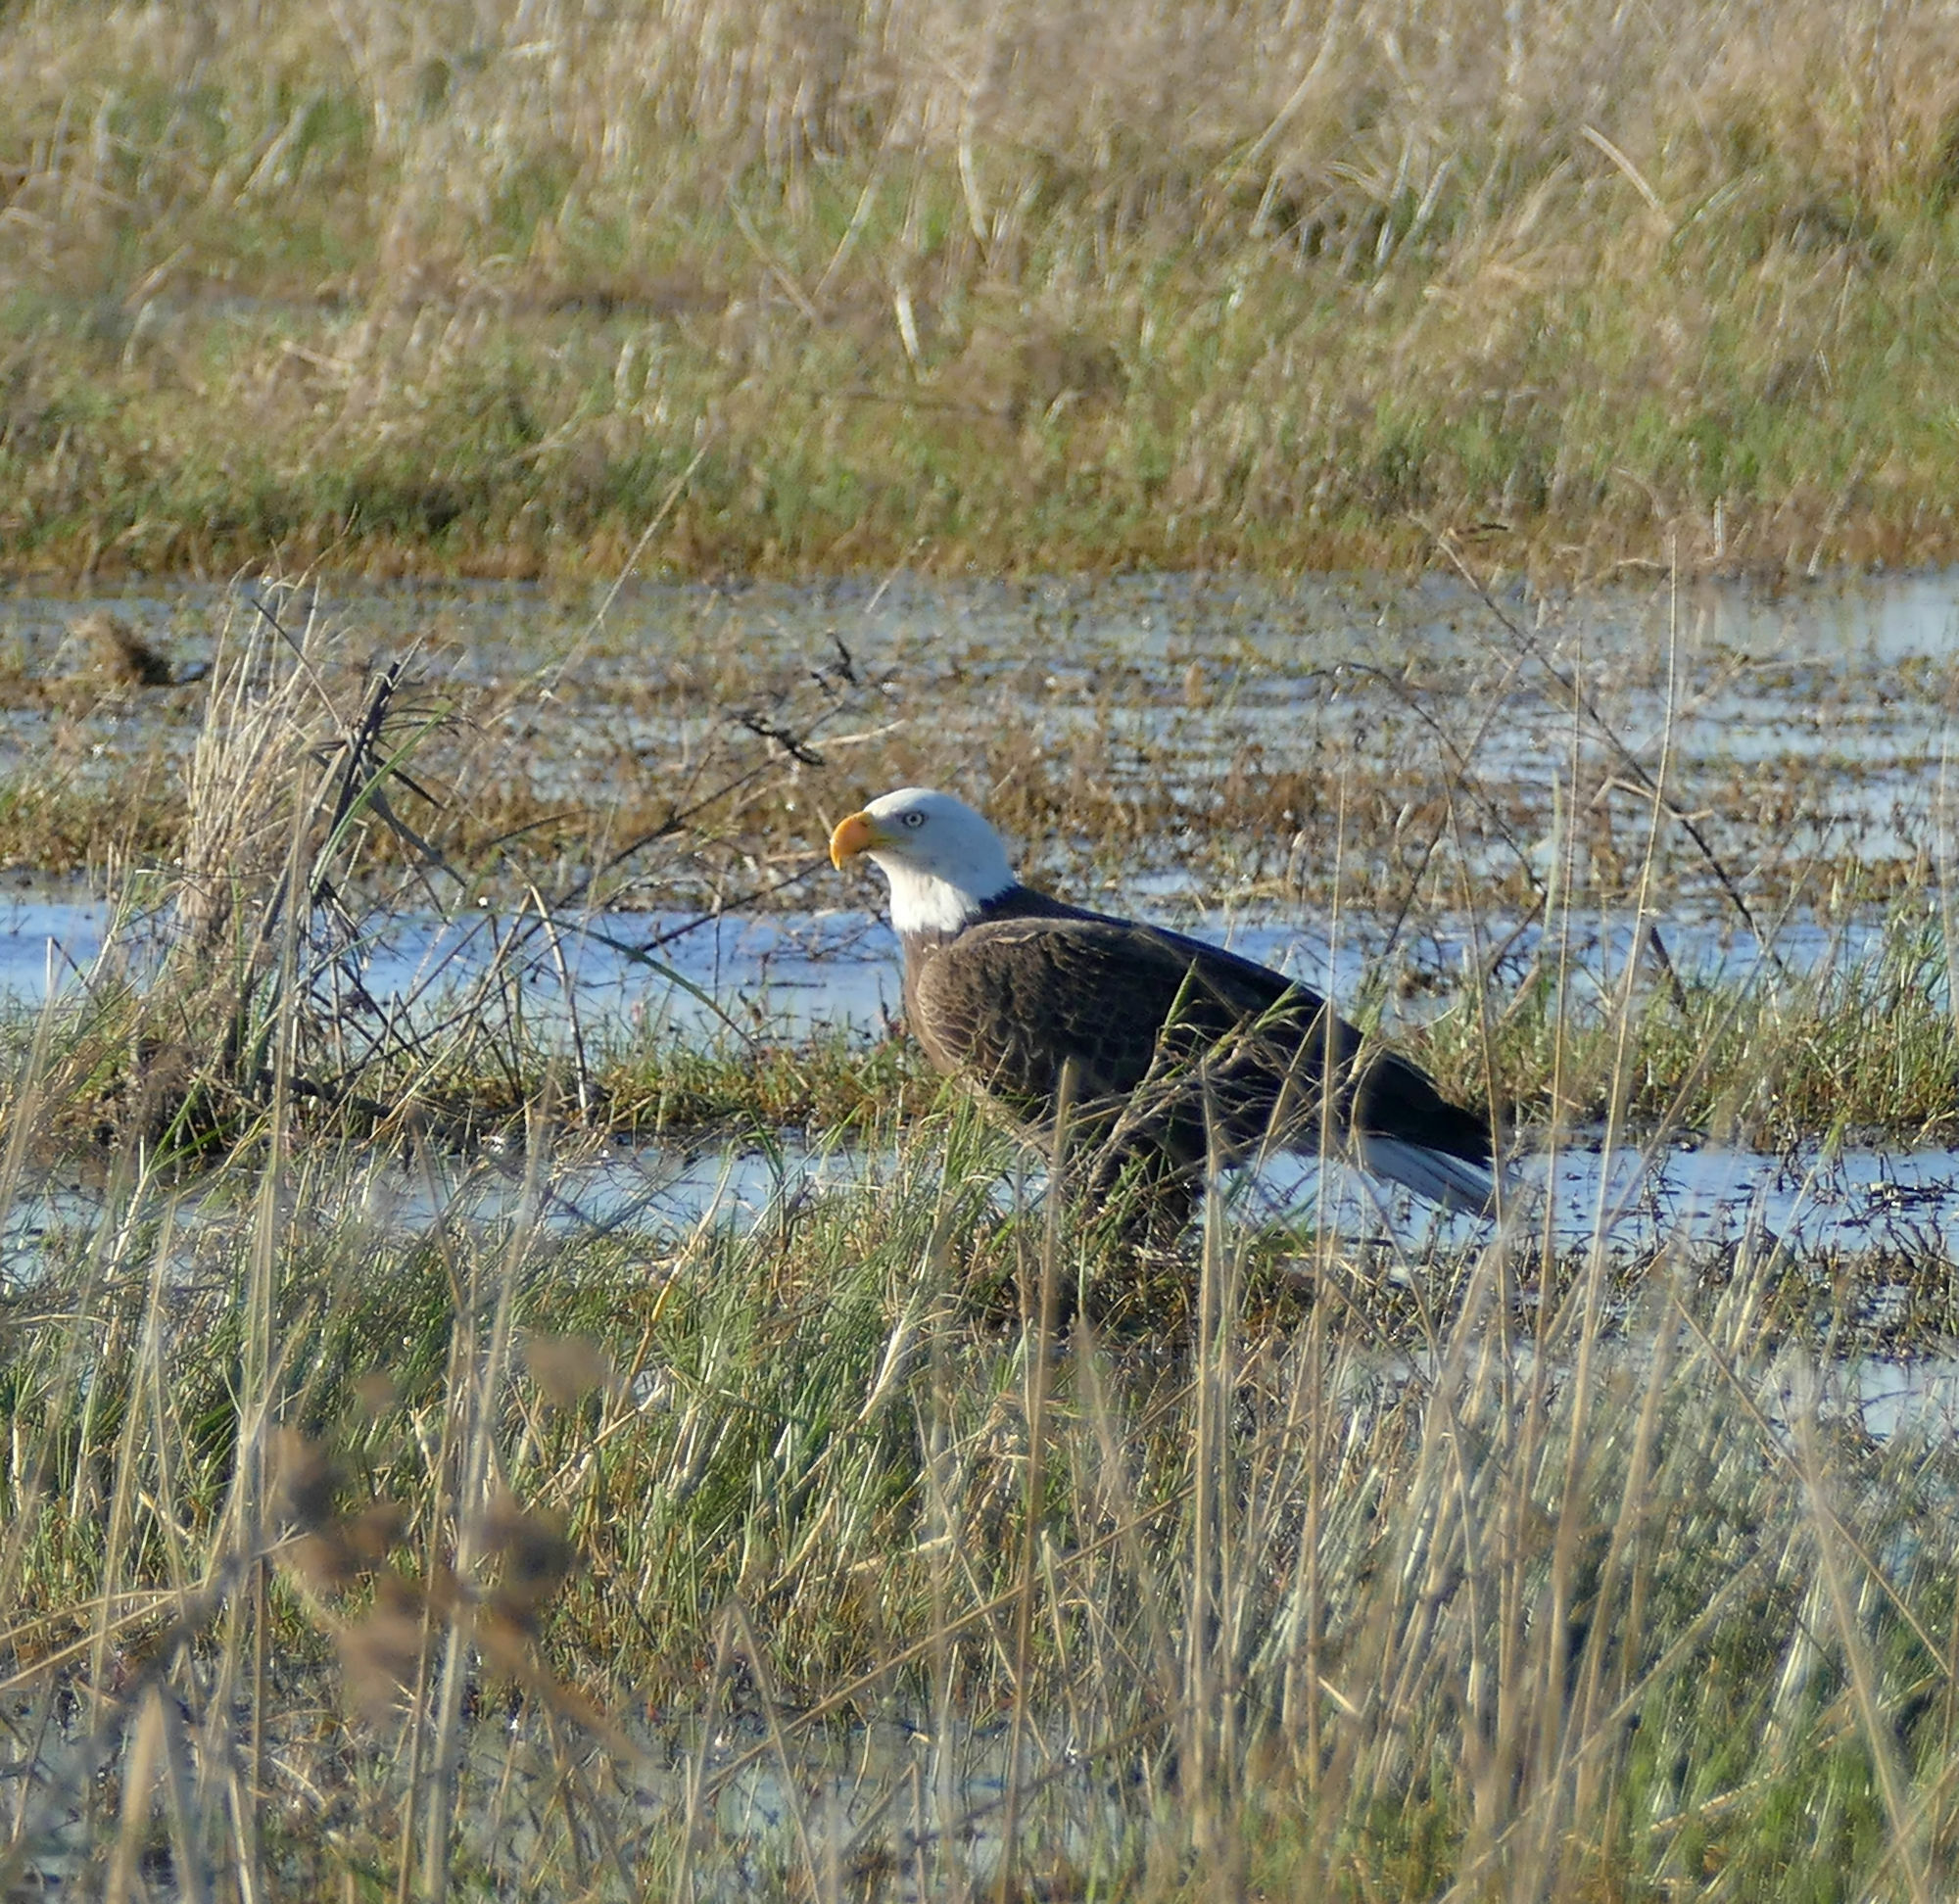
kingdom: Animalia
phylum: Chordata
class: Aves
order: Accipitriformes
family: Accipitridae
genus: Haliaeetus
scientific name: Haliaeetus leucocephalus
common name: Bald eagle
